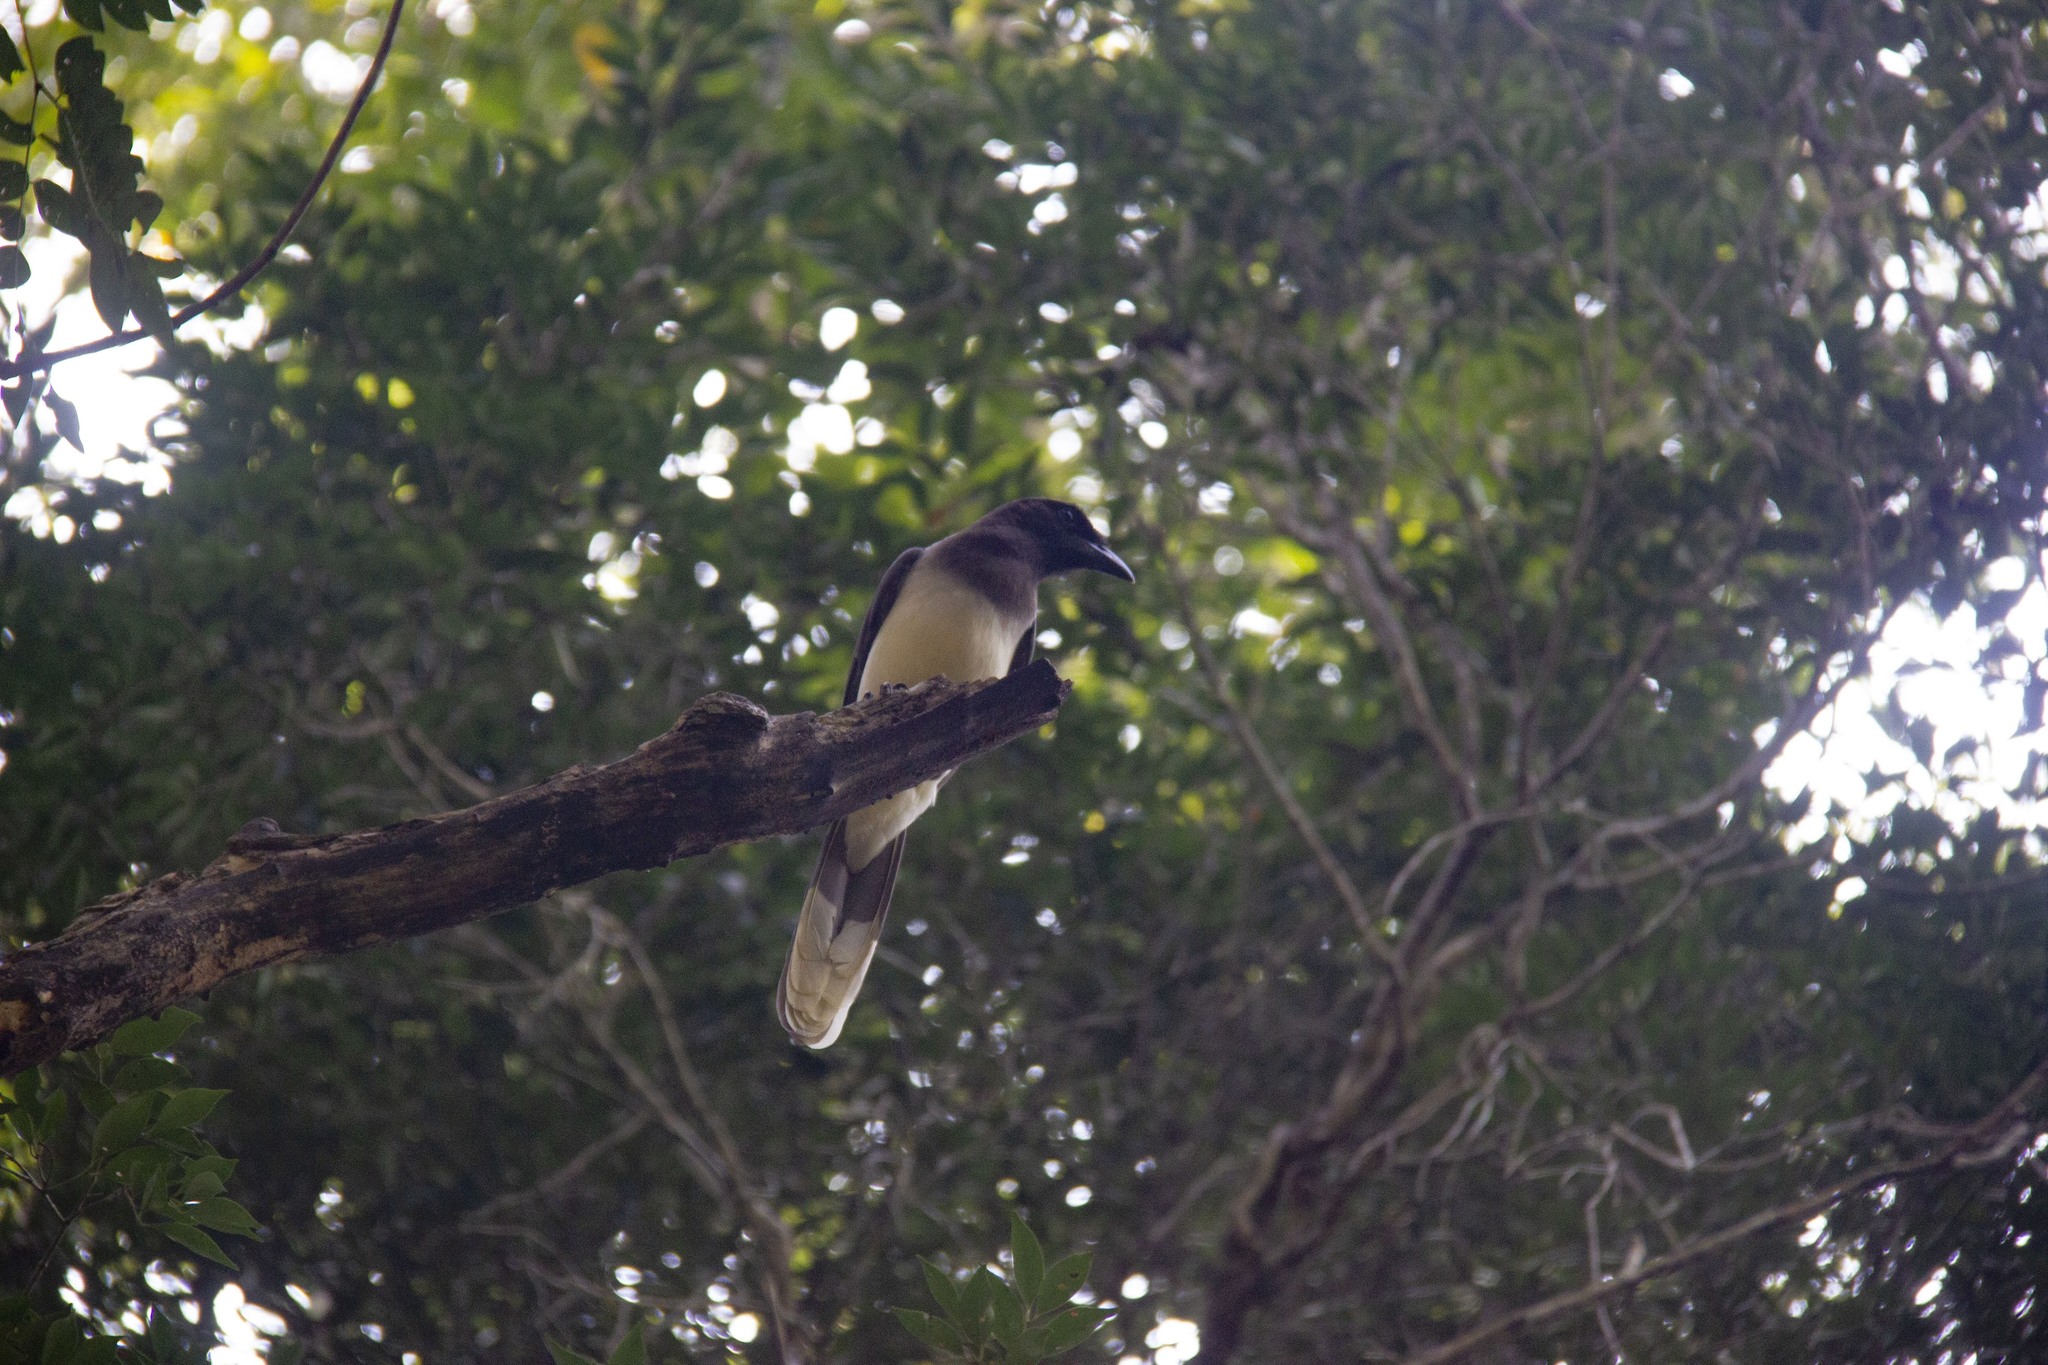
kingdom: Animalia
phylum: Chordata
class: Aves
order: Passeriformes
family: Corvidae
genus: Psilorhinus
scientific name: Psilorhinus morio
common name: Brown jay
